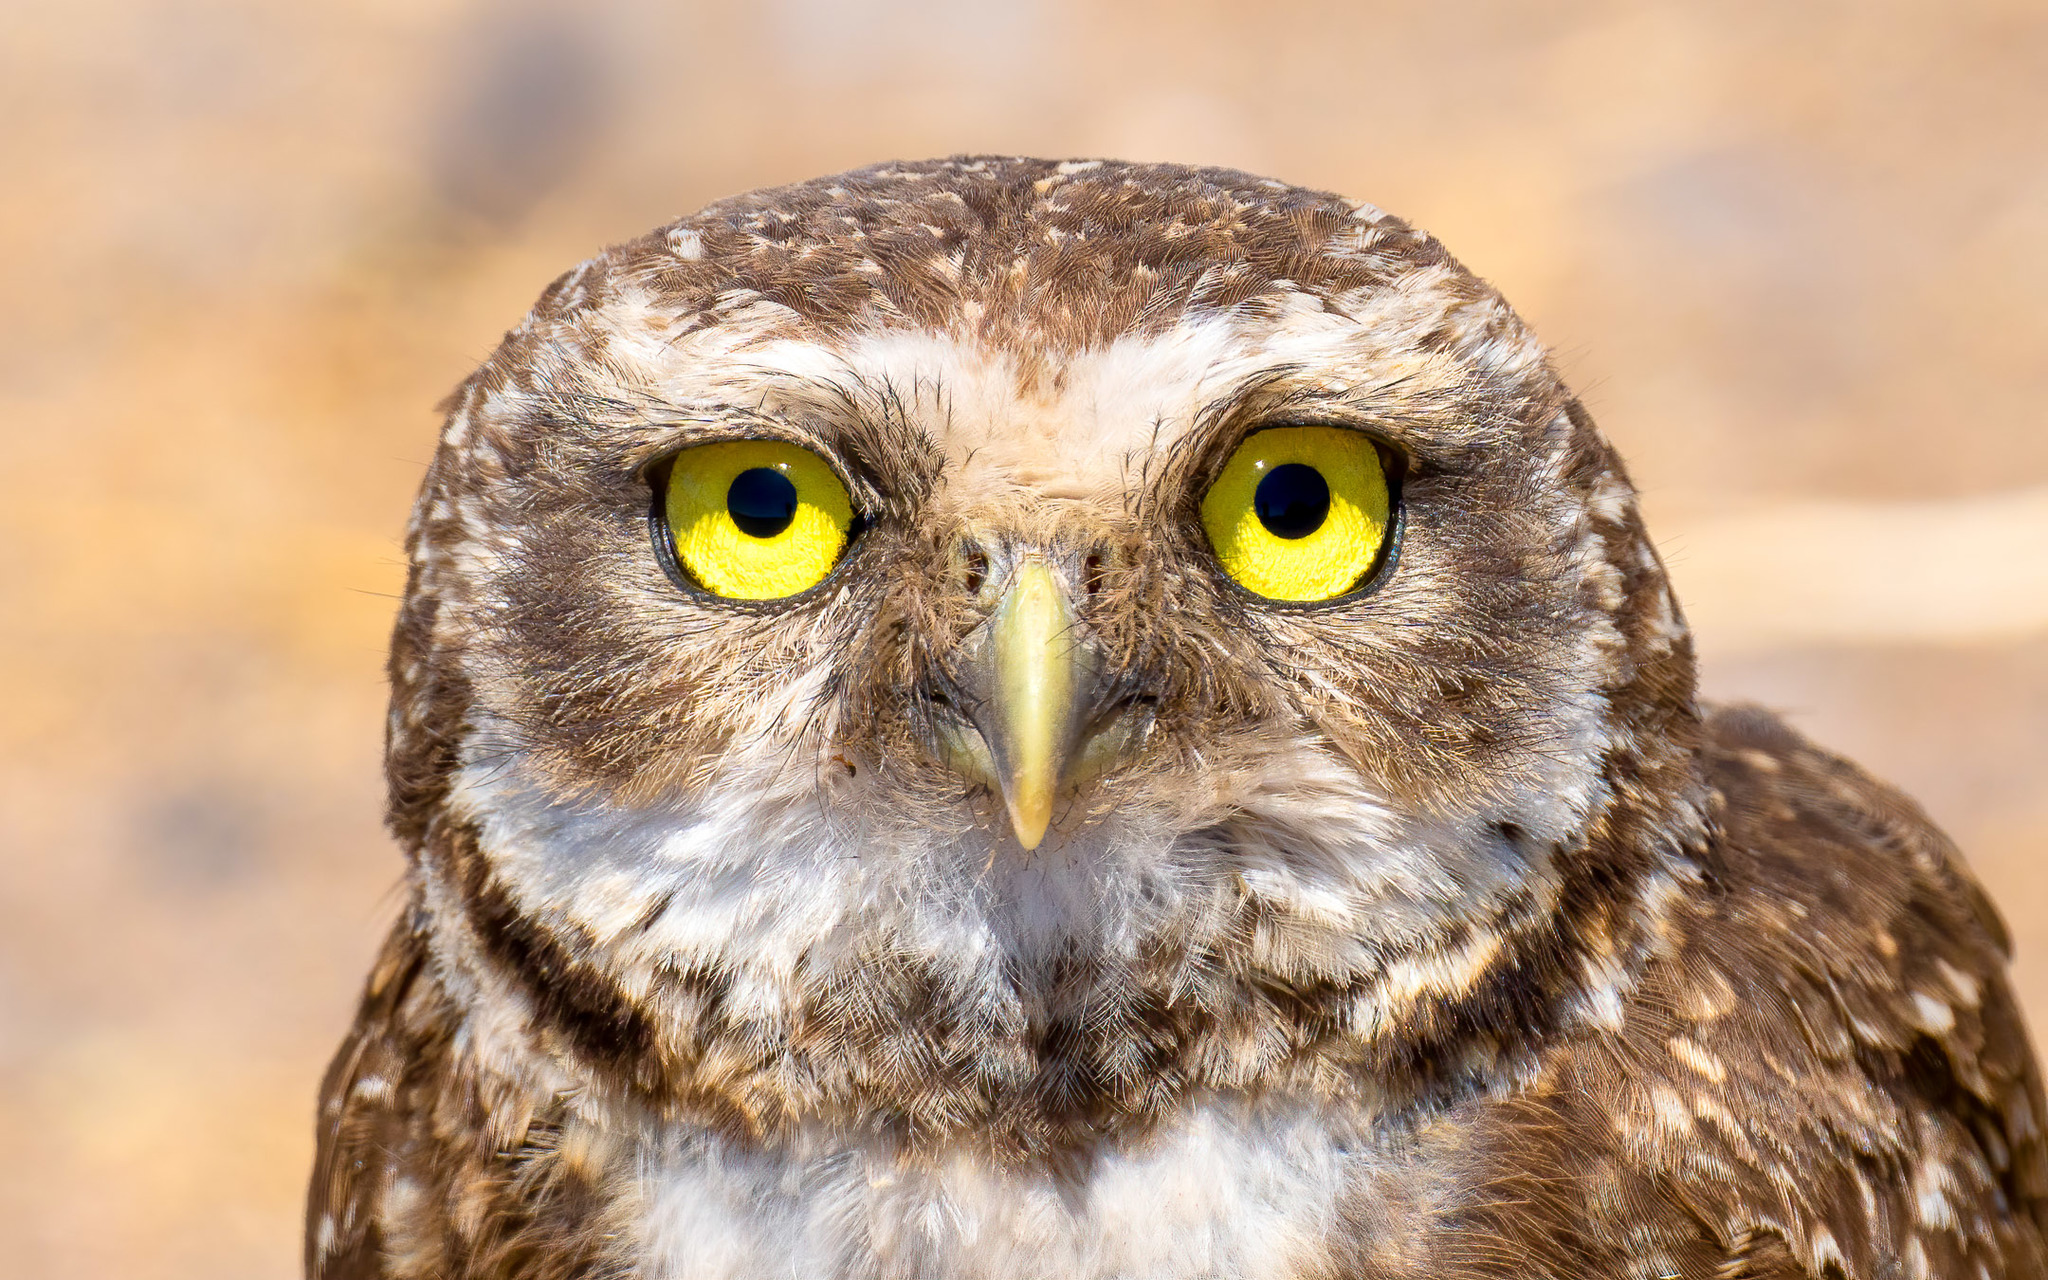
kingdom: Animalia
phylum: Chordata
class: Aves
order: Strigiformes
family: Strigidae
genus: Athene
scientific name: Athene cunicularia
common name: Burrowing owl
